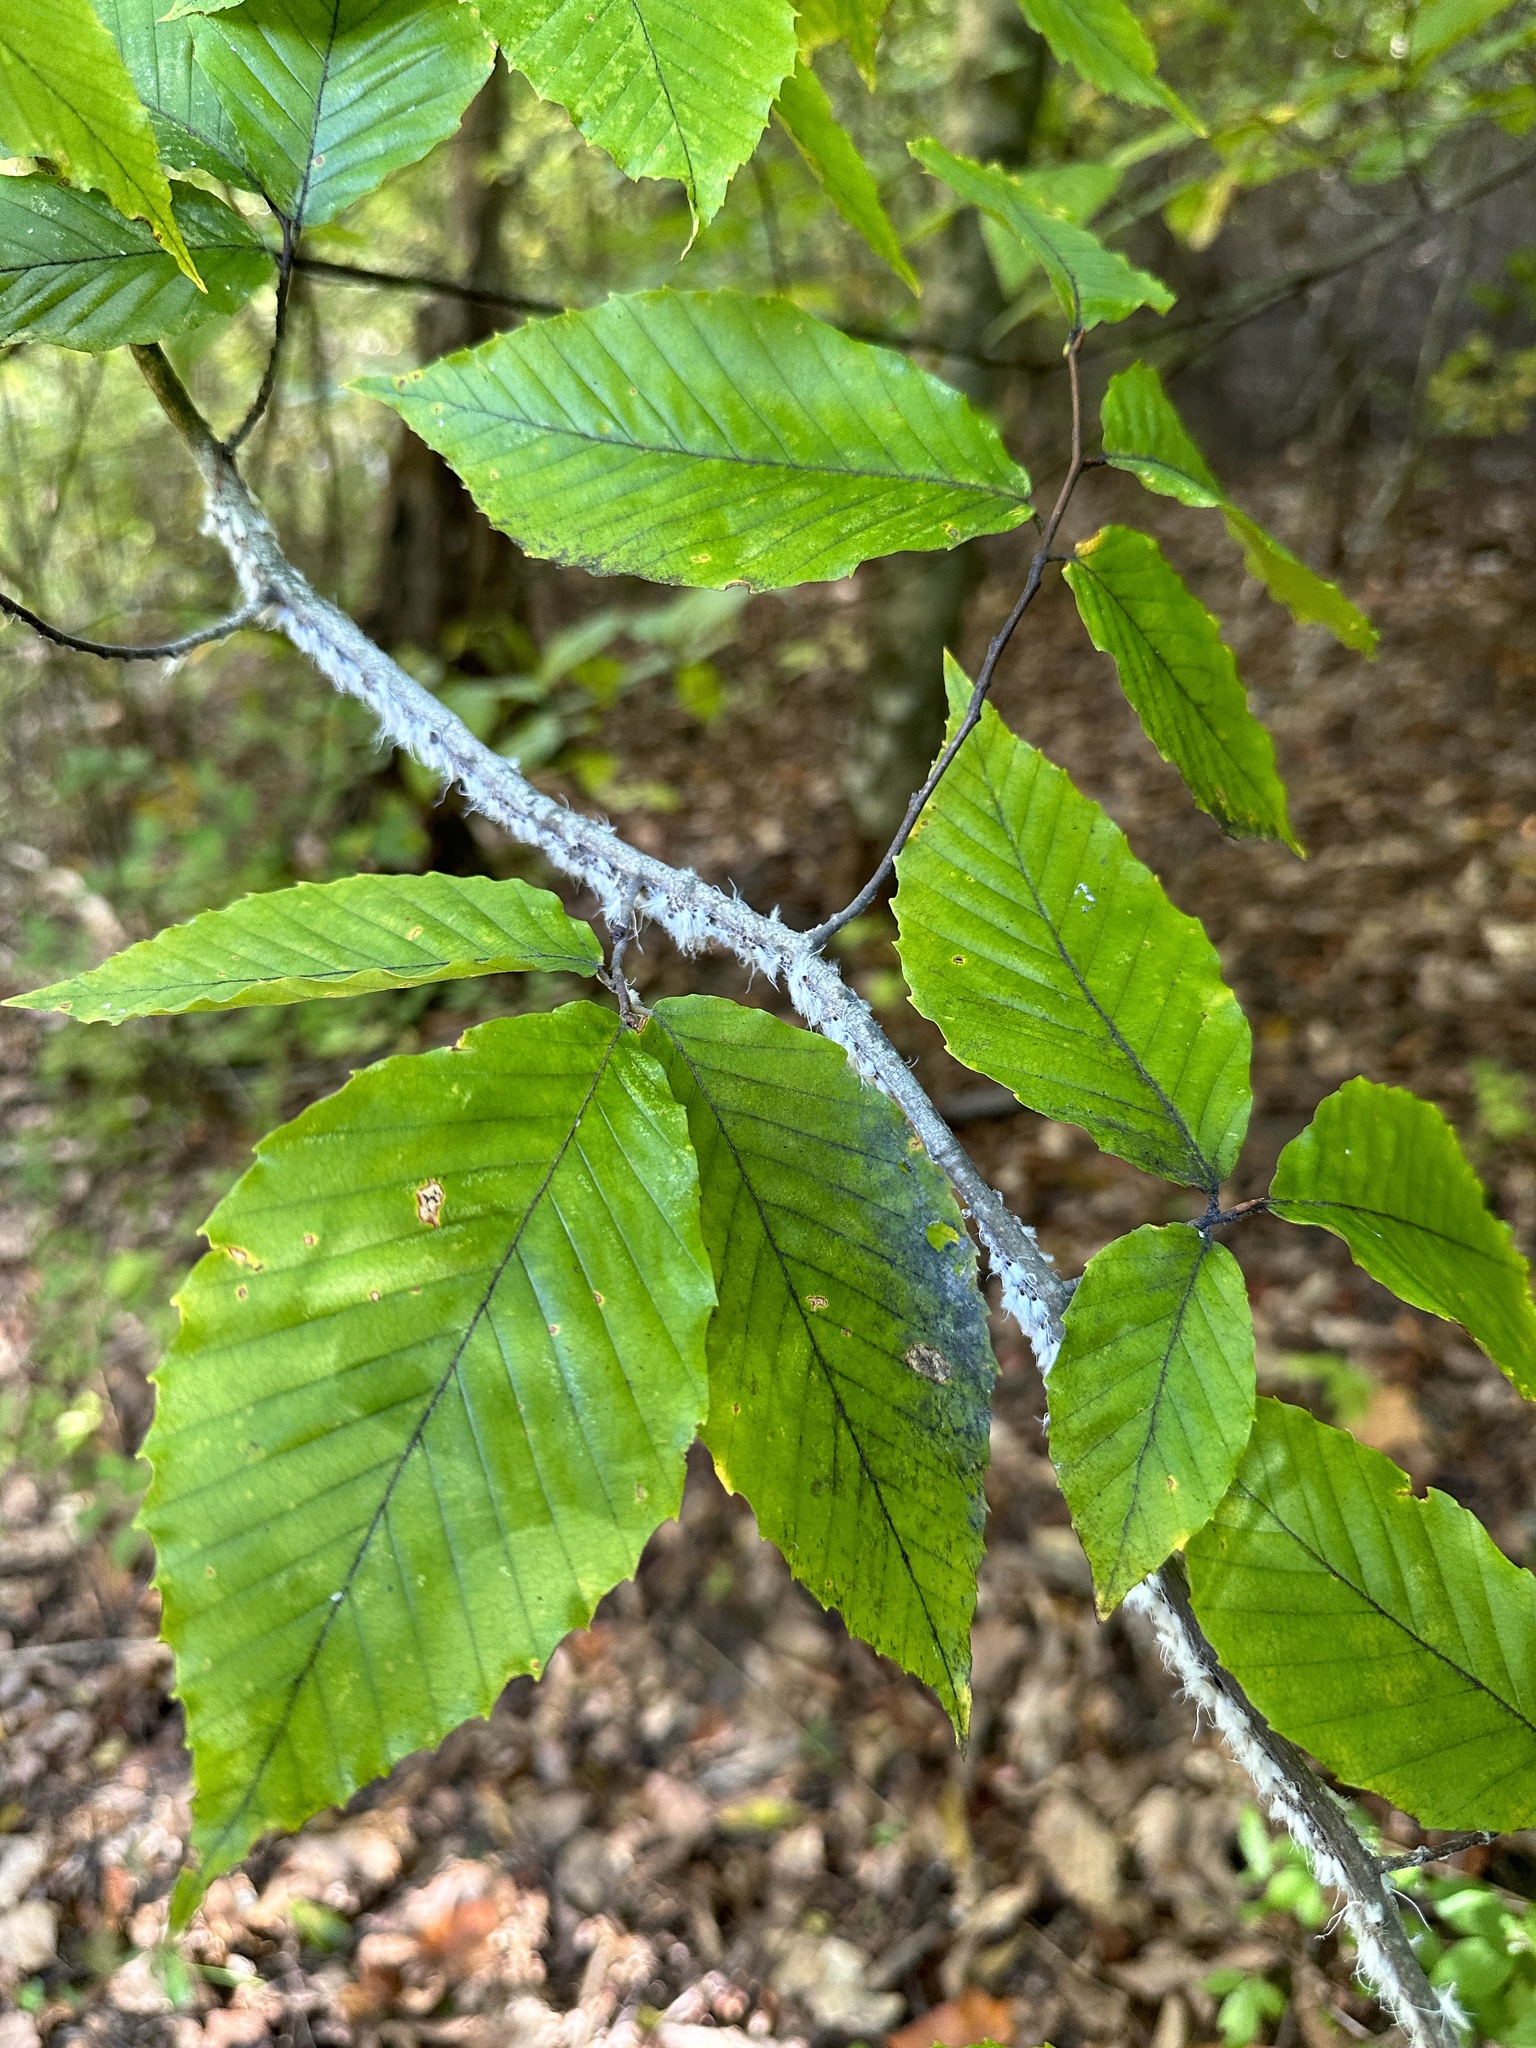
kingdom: Animalia
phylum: Arthropoda
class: Insecta
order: Hemiptera
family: Aphididae
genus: Grylloprociphilus
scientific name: Grylloprociphilus imbricator
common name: Beech blight aphid
